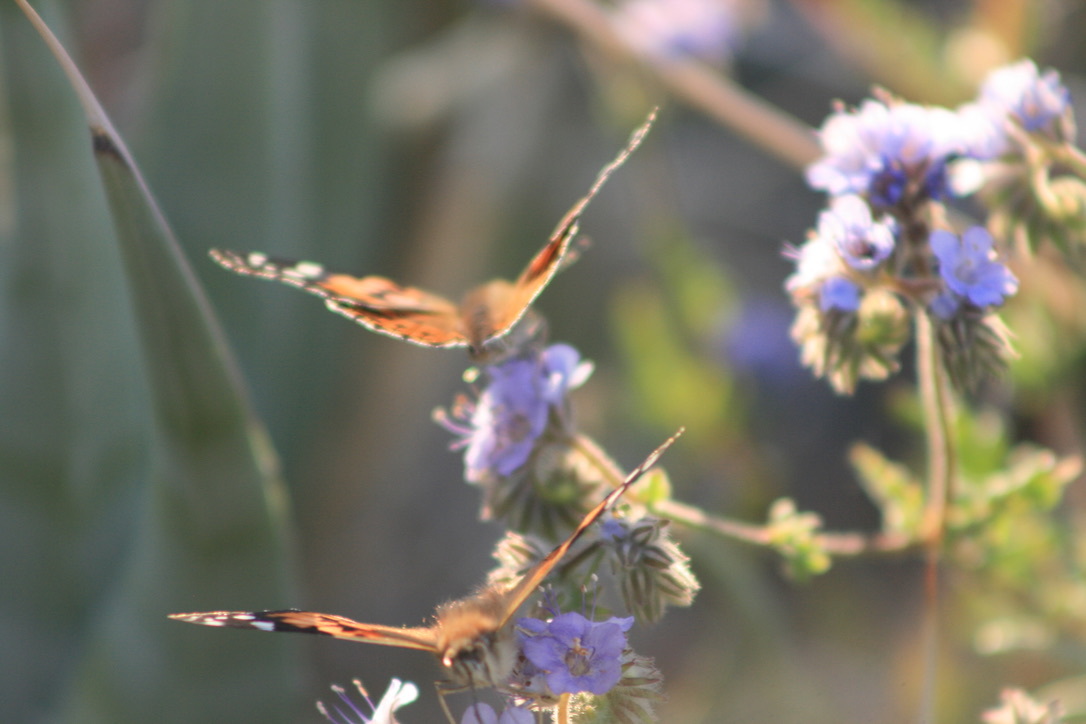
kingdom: Animalia
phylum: Arthropoda
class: Insecta
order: Lepidoptera
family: Nymphalidae
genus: Vanessa
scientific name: Vanessa cardui
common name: Painted lady
